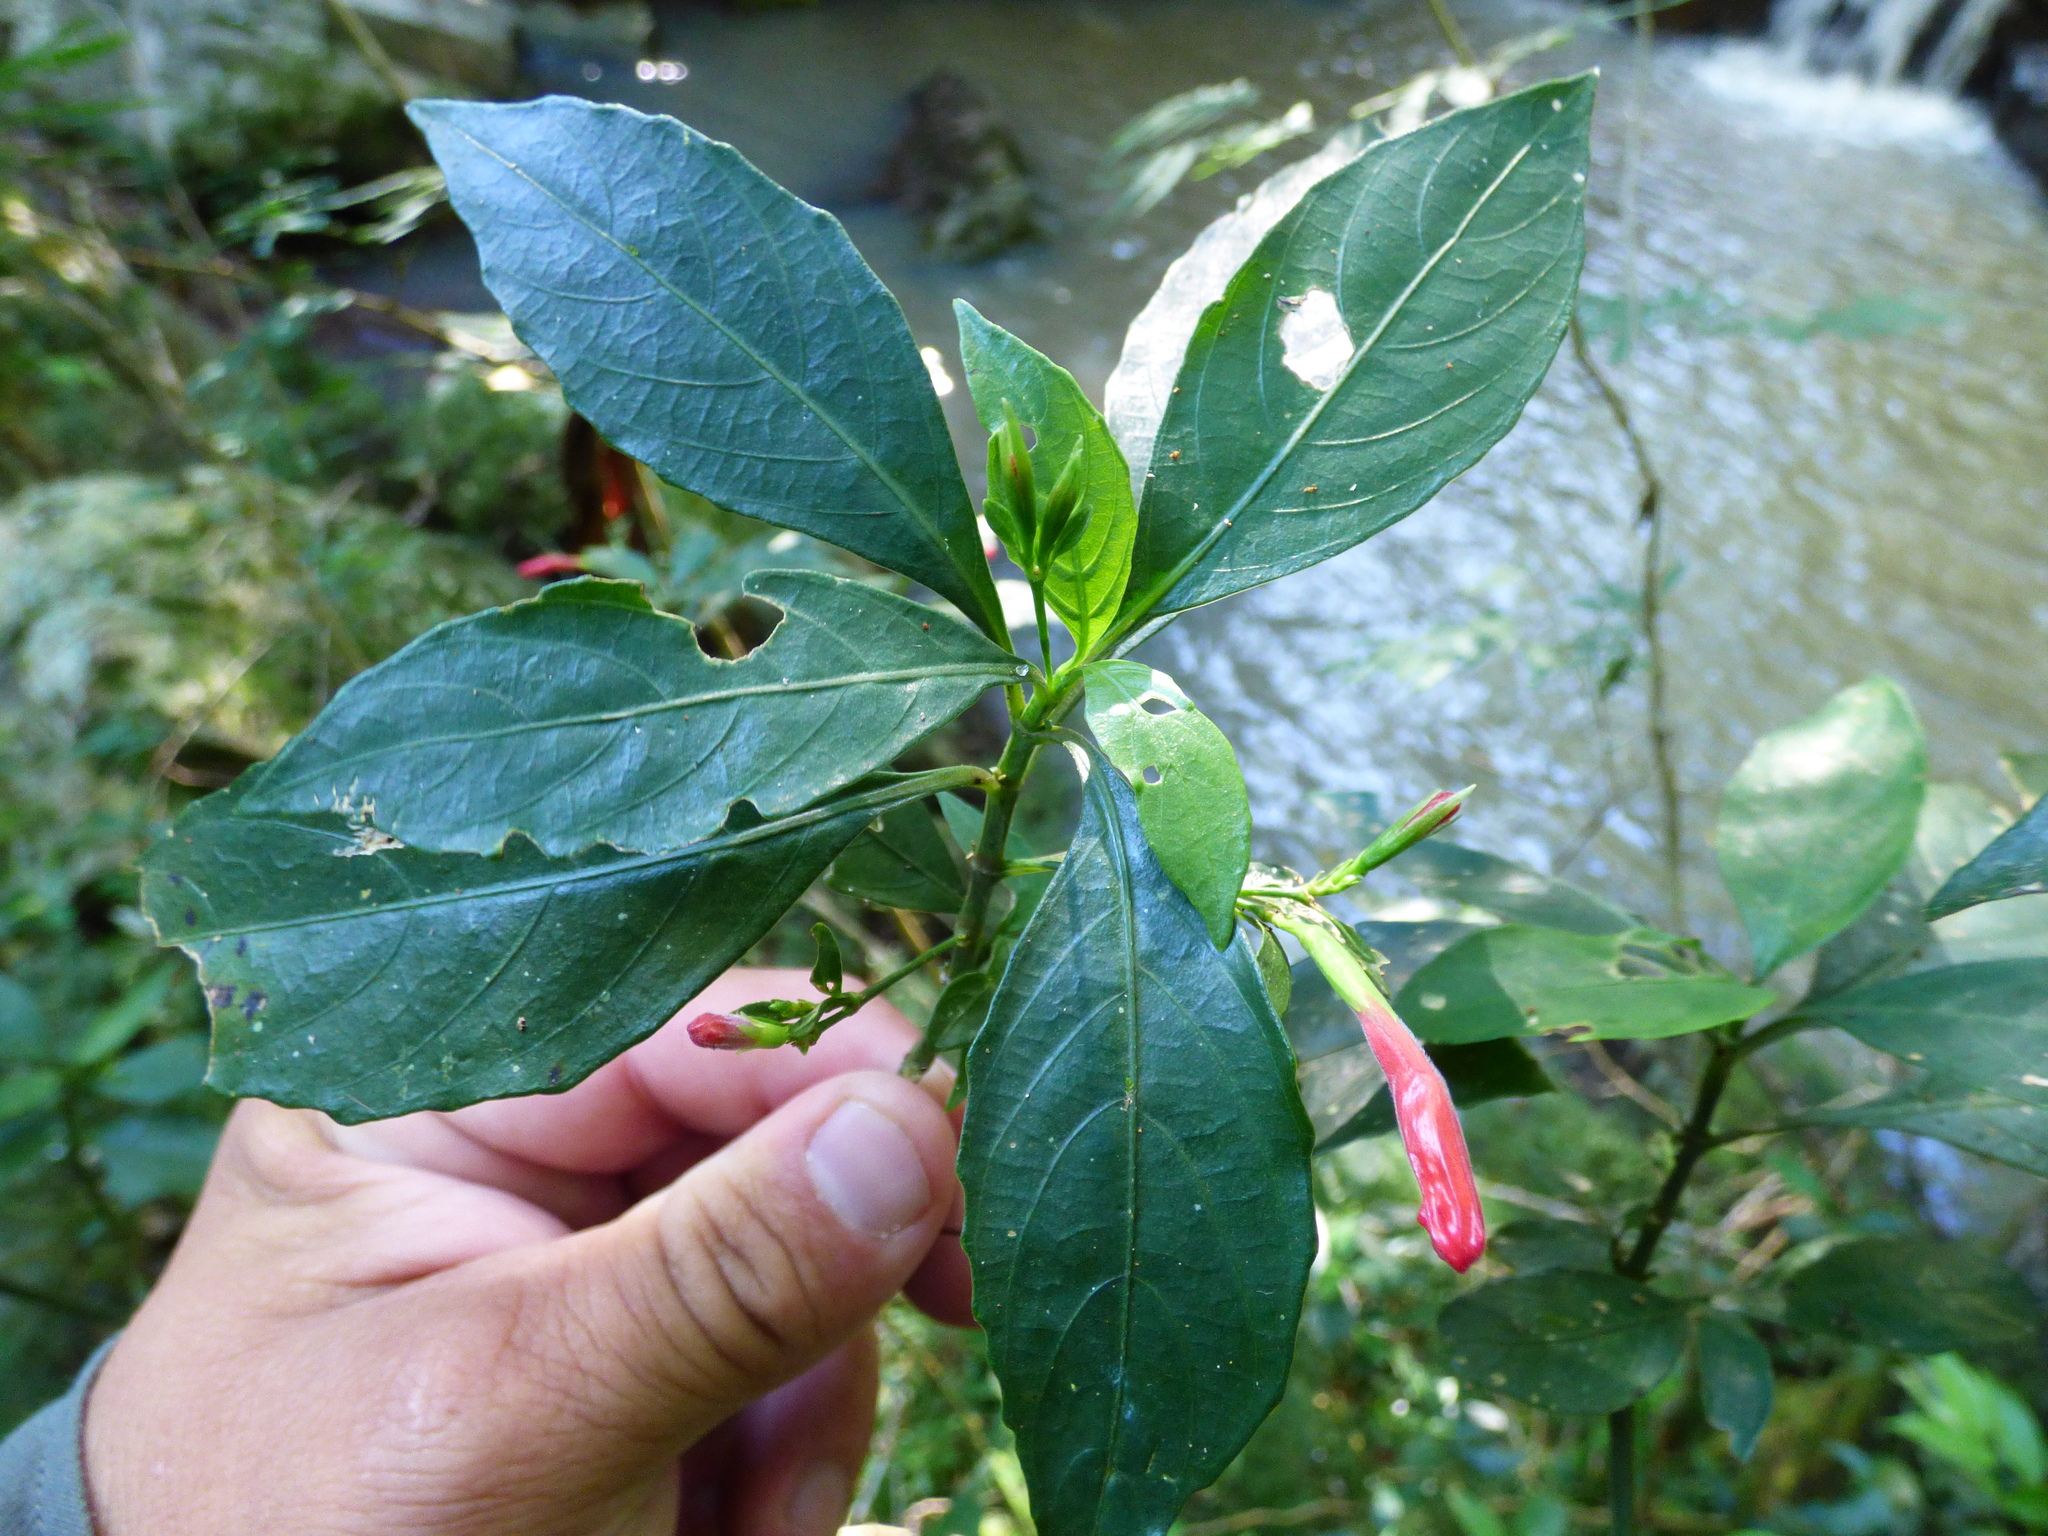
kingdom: Plantae
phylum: Tracheophyta
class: Magnoliopsida
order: Lamiales
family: Acanthaceae
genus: Ruellia
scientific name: Ruellia angustiflora
